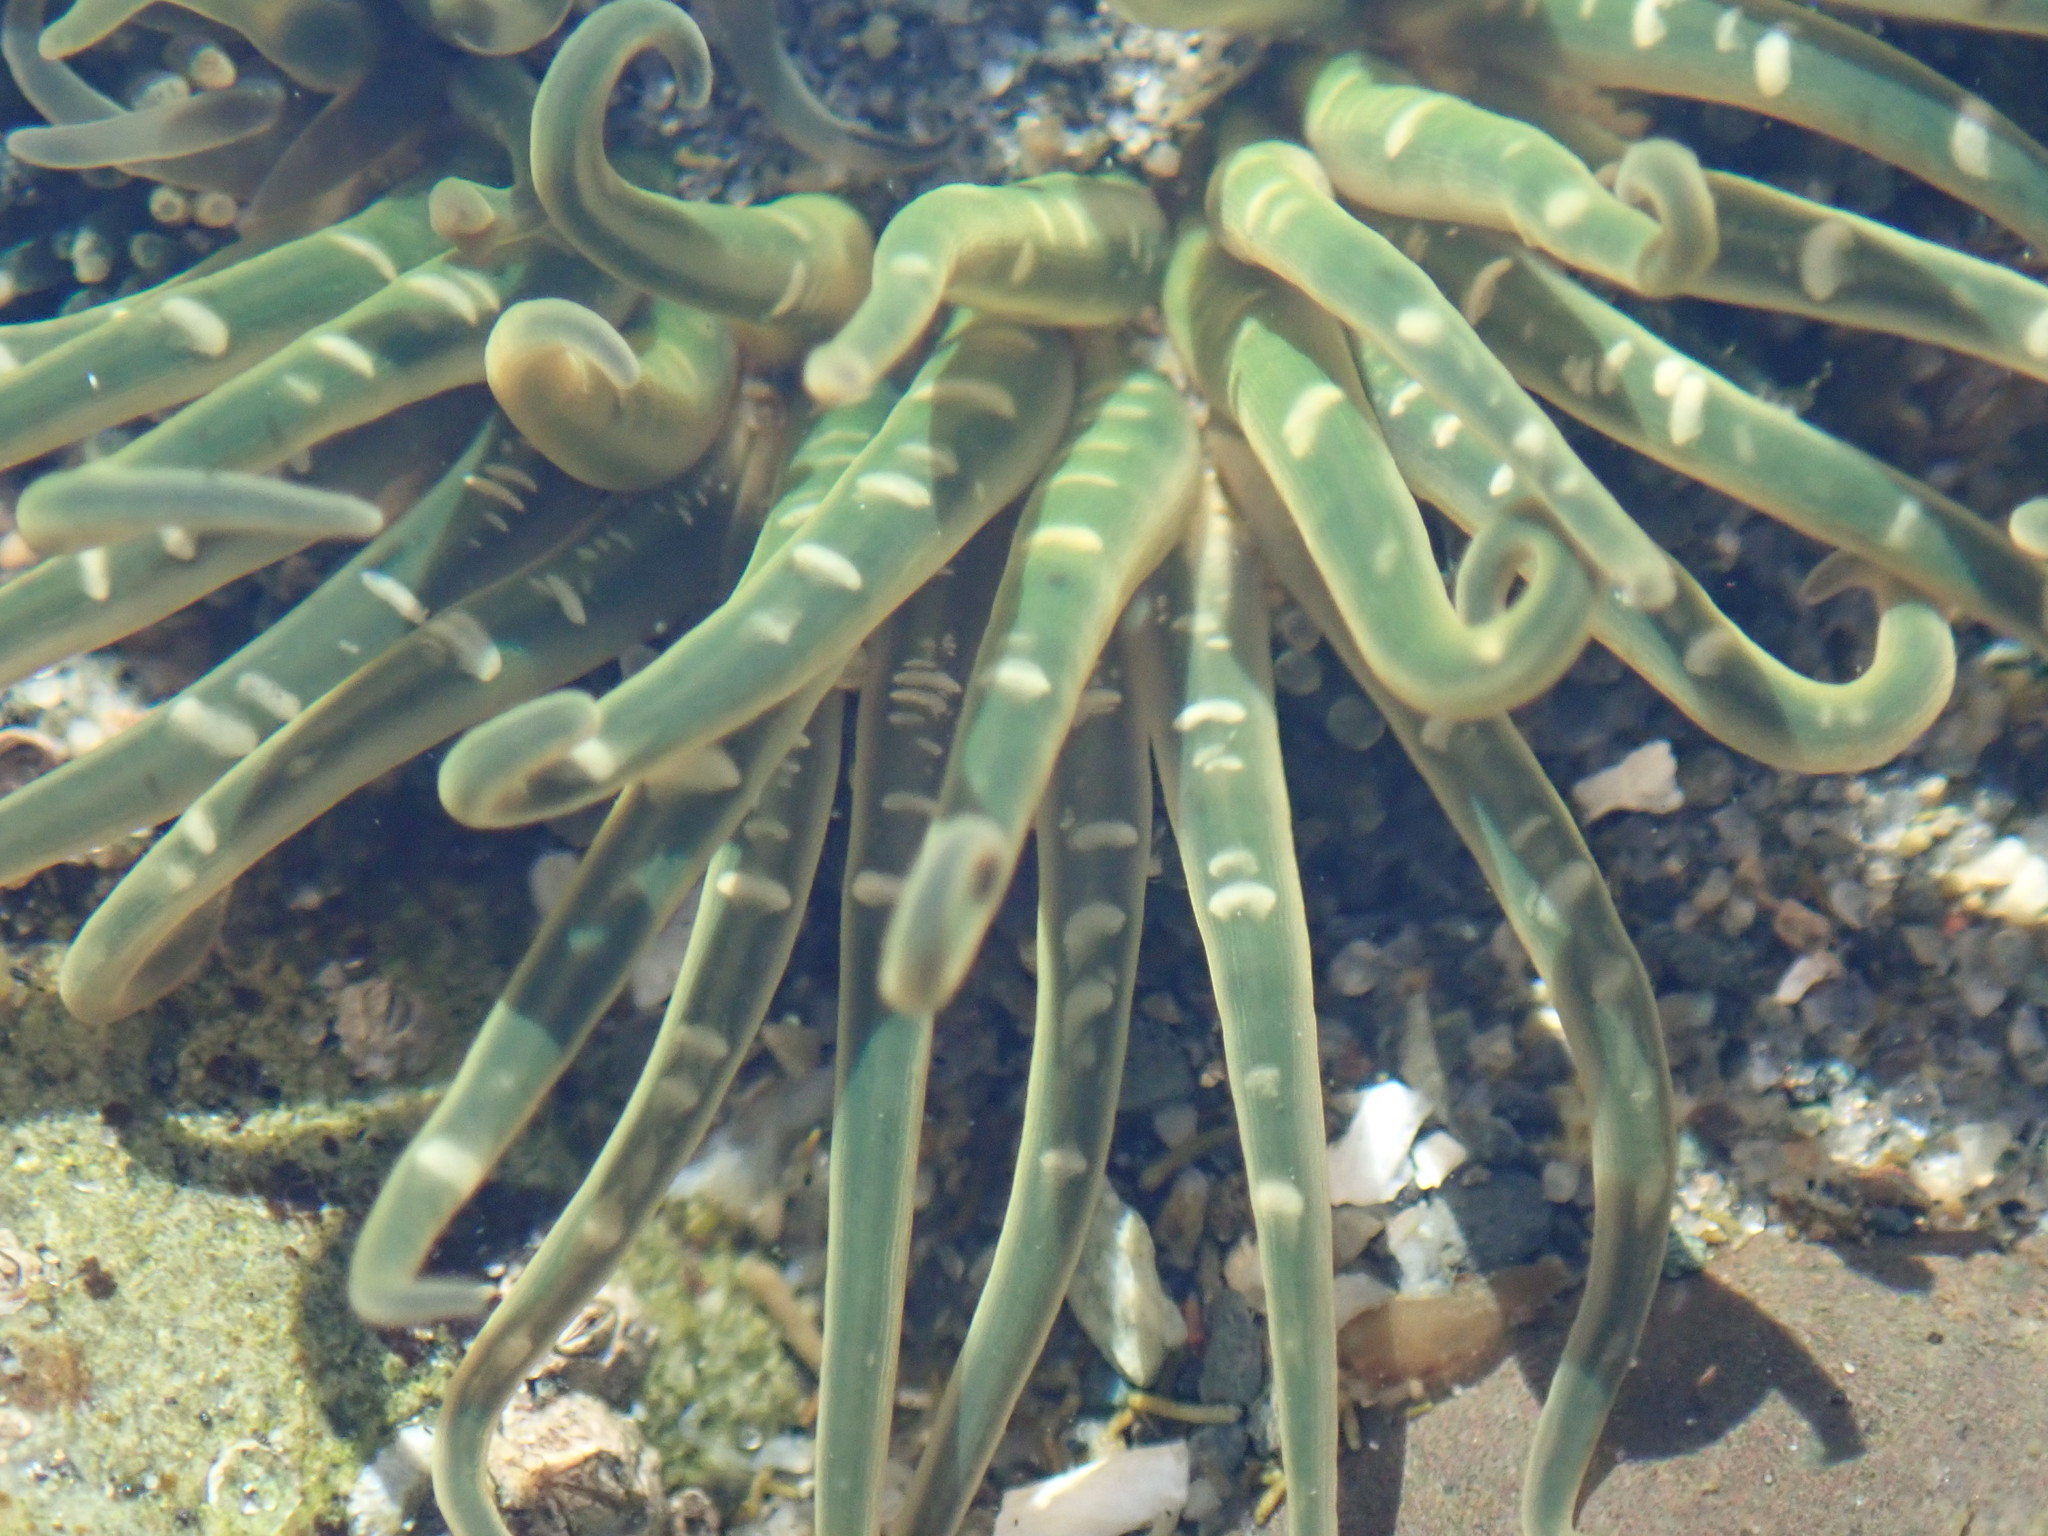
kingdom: Animalia
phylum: Cnidaria
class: Anthozoa
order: Actiniaria
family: Actiniidae
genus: Anthopleura
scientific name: Anthopleura artemisia
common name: Buried sea anemone
